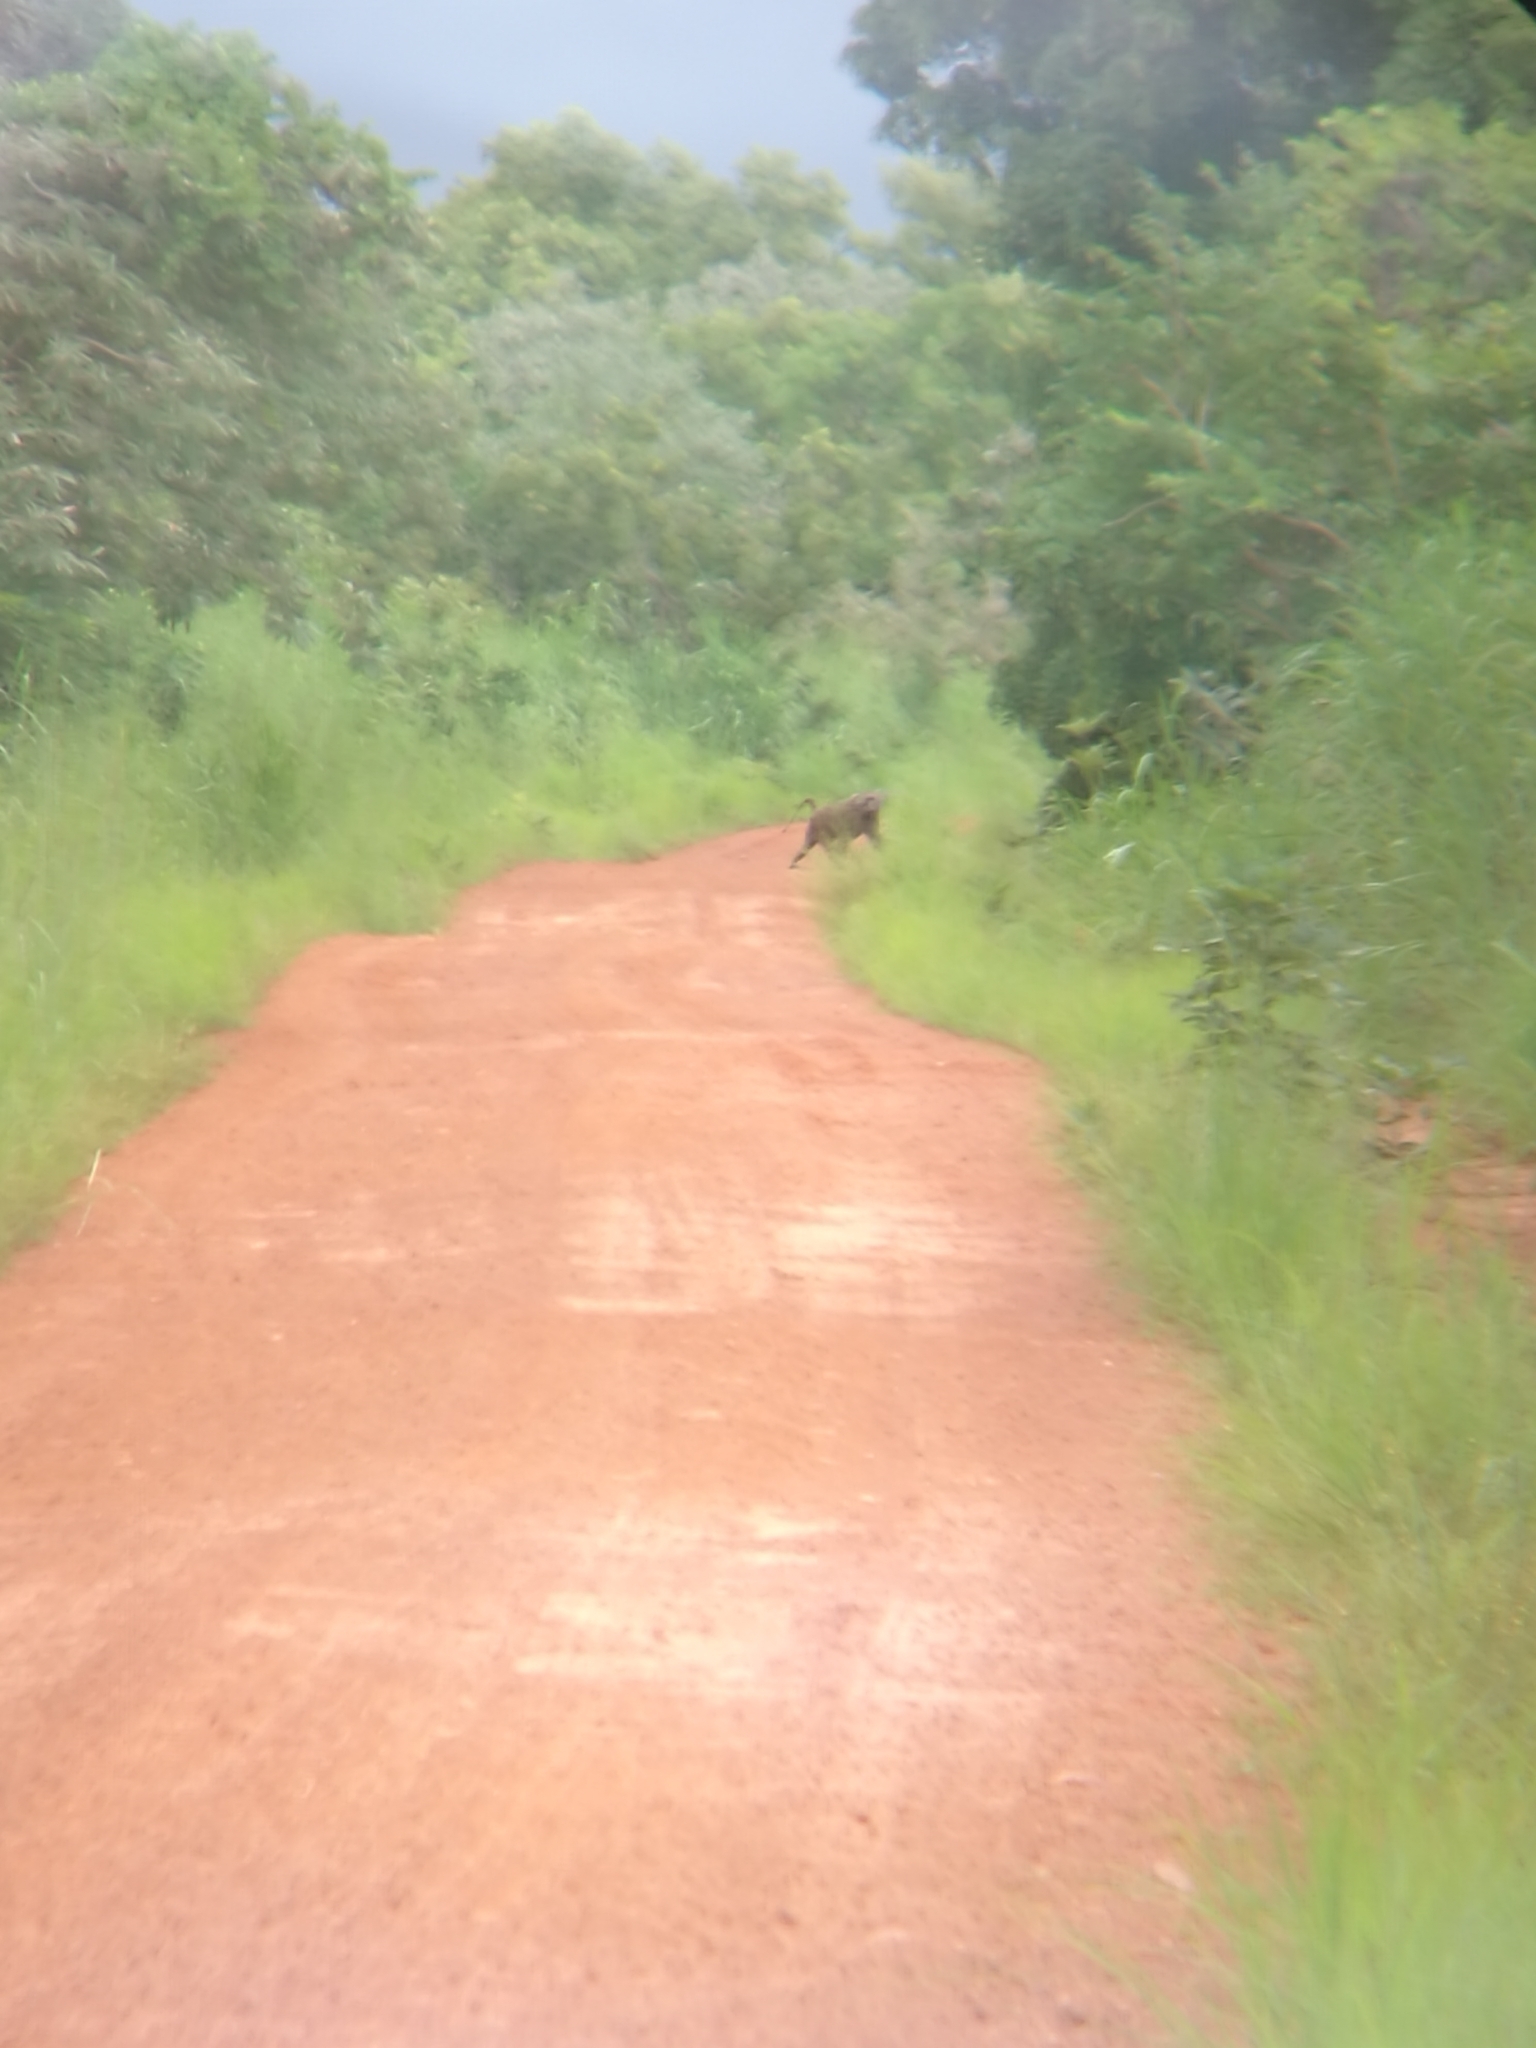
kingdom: Animalia
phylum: Chordata
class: Mammalia
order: Primates
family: Cercopithecidae
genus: Papio
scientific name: Papio anubis
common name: Olive baboon
